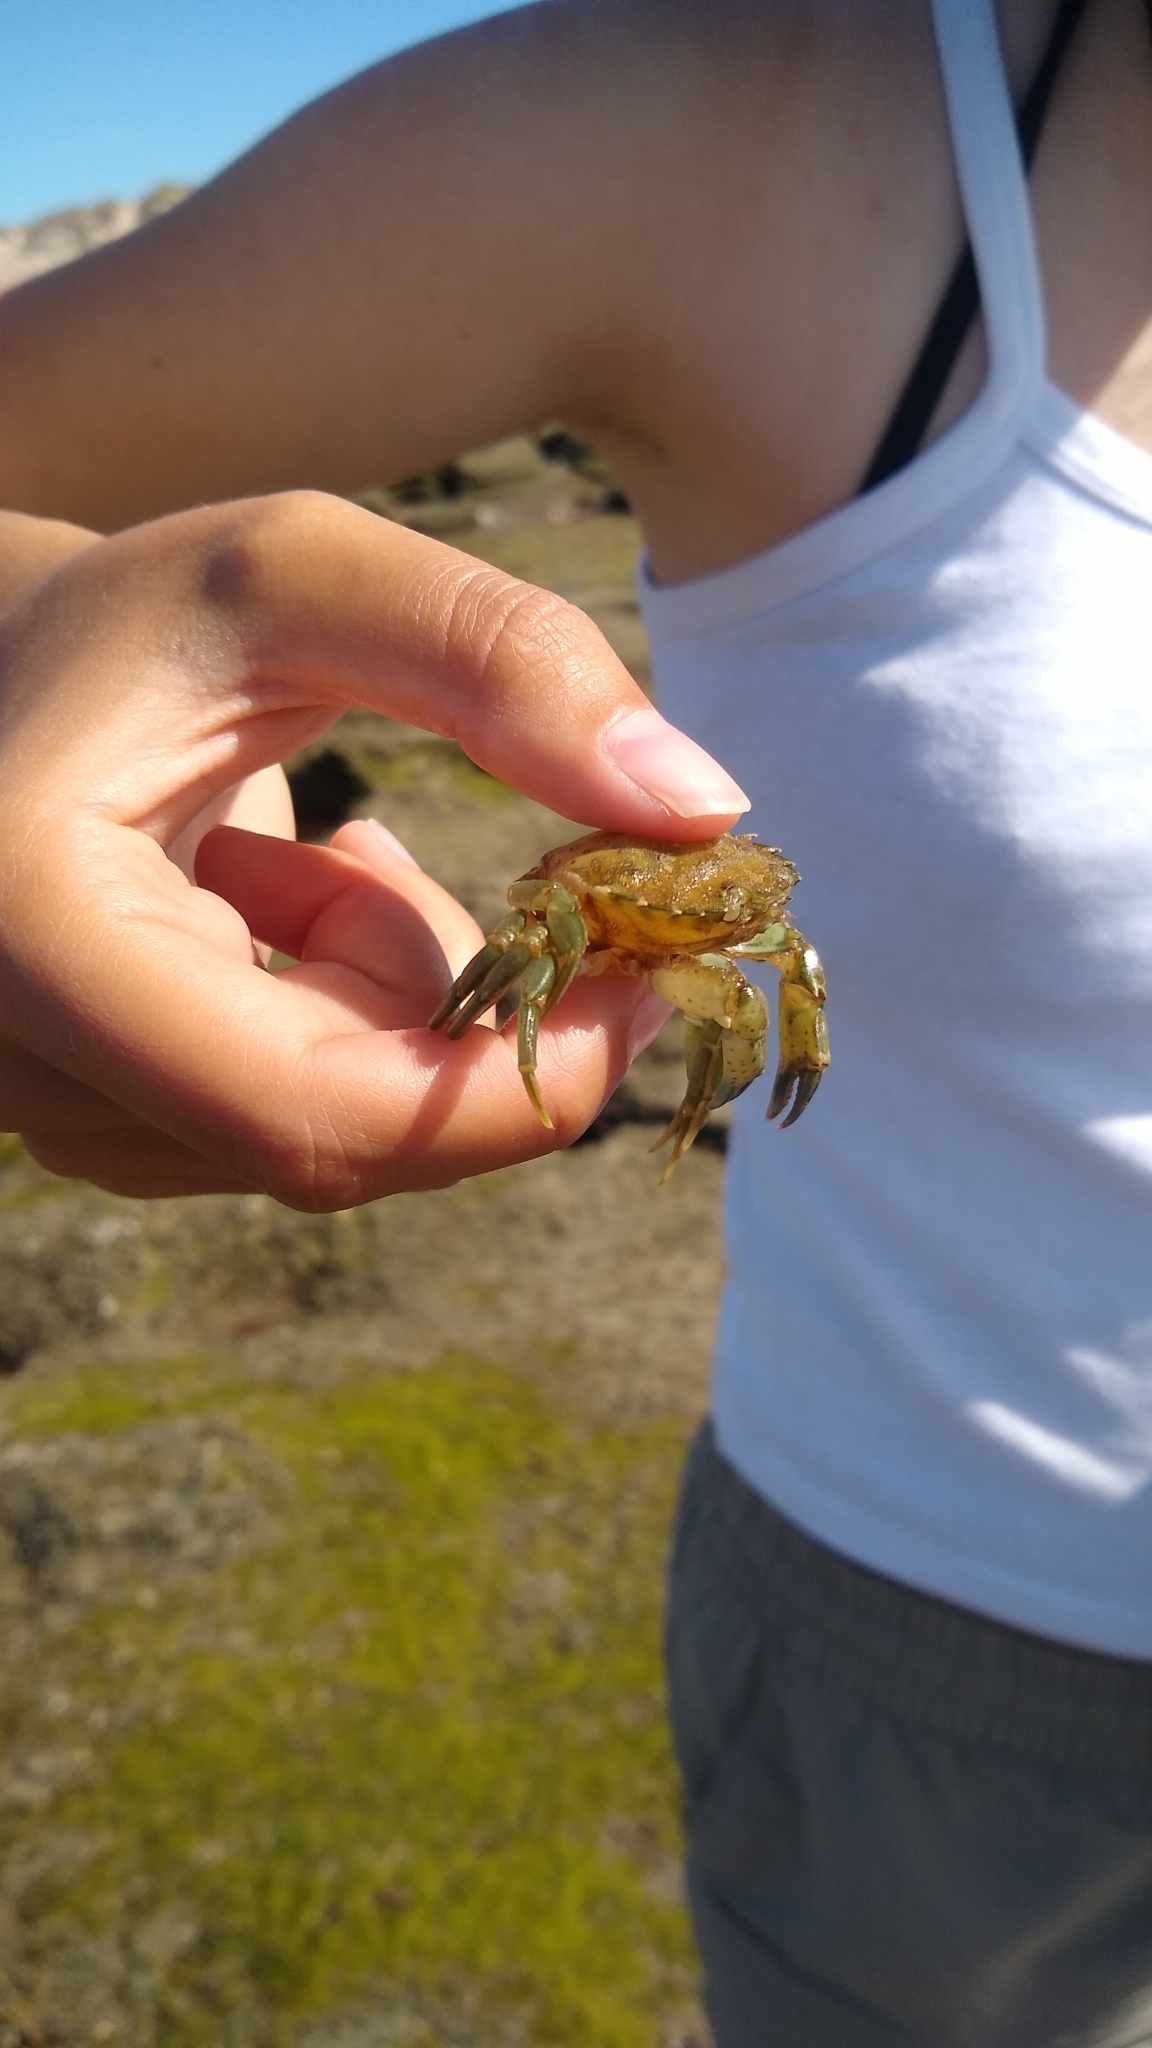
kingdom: Animalia
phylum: Arthropoda
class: Malacostraca
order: Decapoda
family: Carcinidae
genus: Carcinus
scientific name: Carcinus maenas
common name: European green crab
